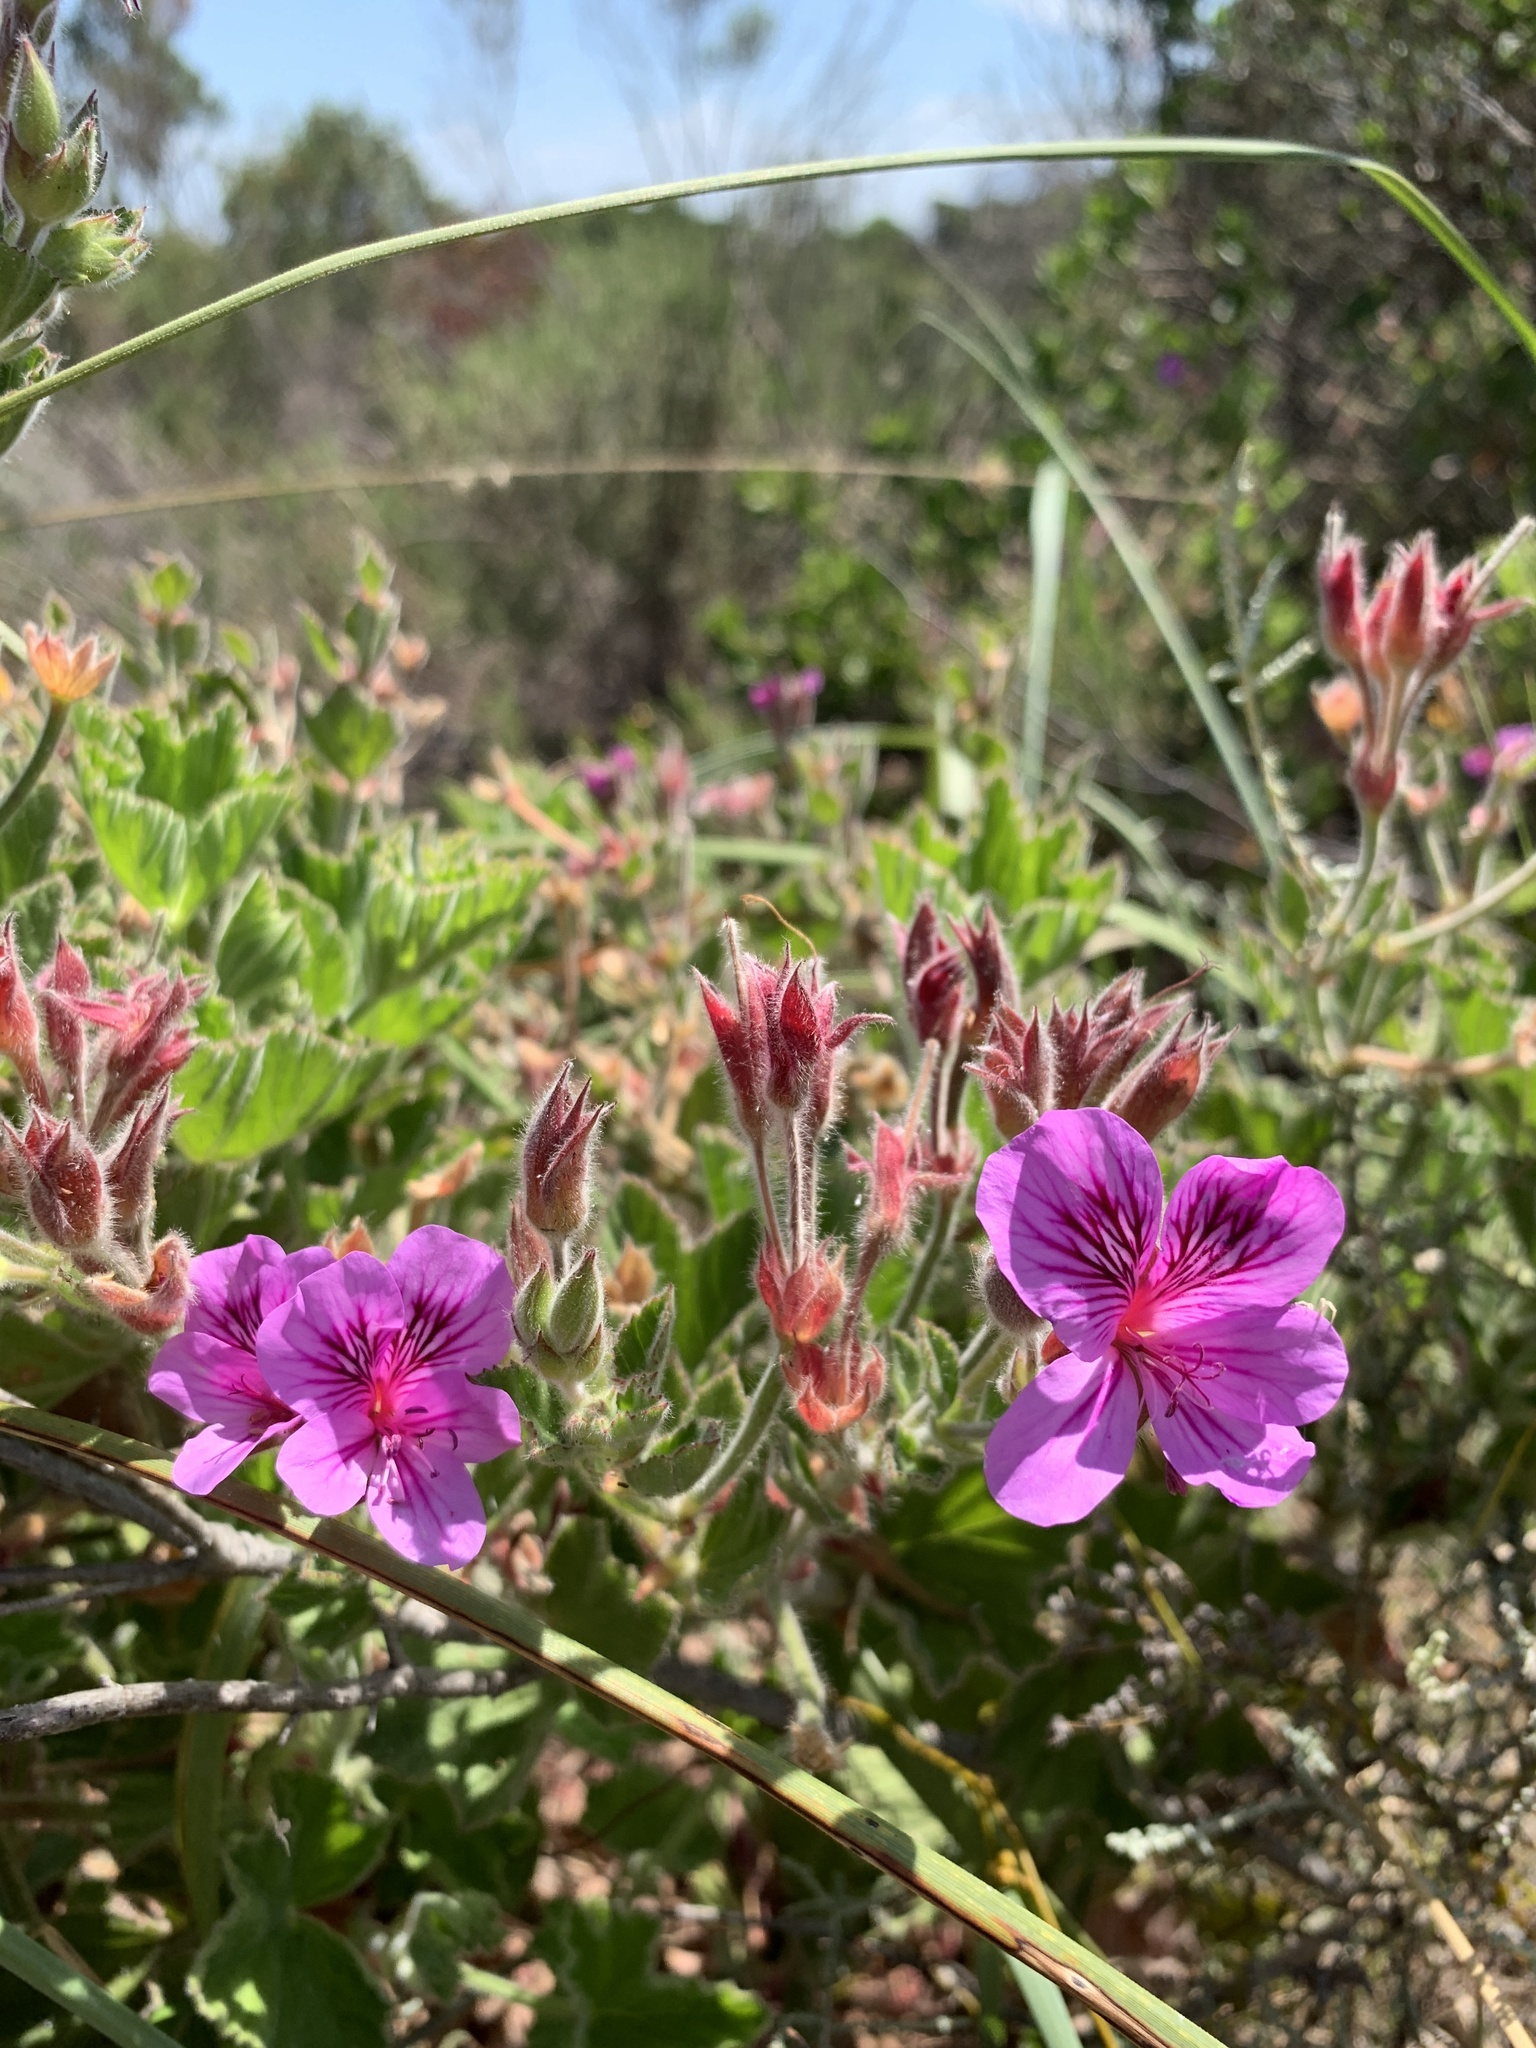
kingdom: Plantae
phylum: Tracheophyta
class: Magnoliopsida
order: Geraniales
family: Geraniaceae
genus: Pelargonium
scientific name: Pelargonium cucullatum
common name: Tree pelargonium
